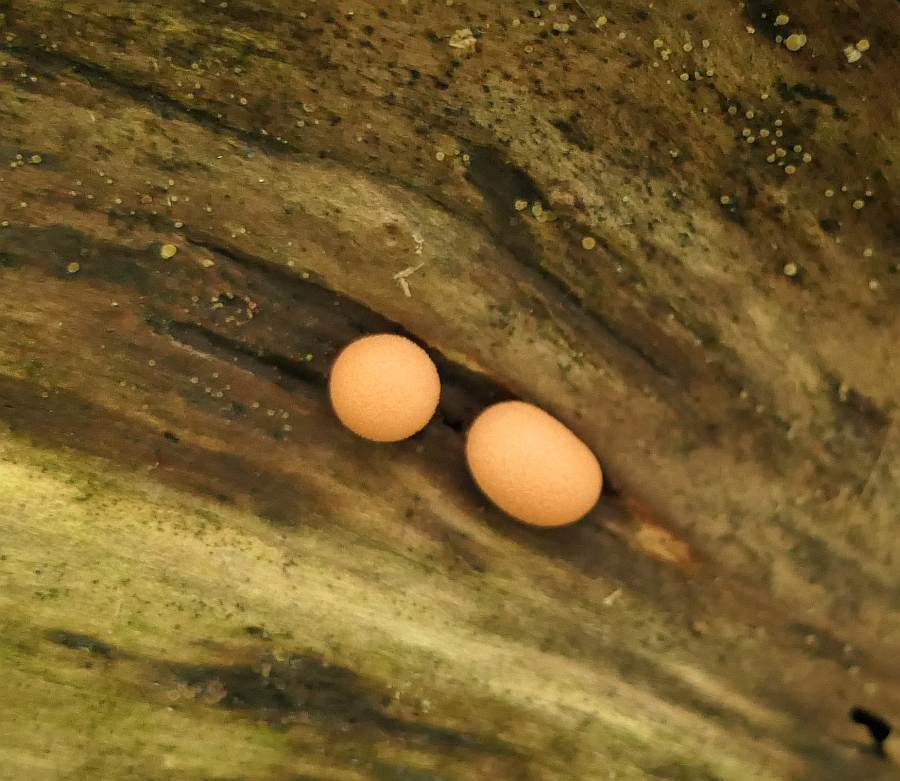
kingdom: Protozoa
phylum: Mycetozoa
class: Myxomycetes
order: Cribrariales
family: Tubiferaceae
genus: Lycogala
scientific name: Lycogala epidendrum
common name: Wolf's milk
